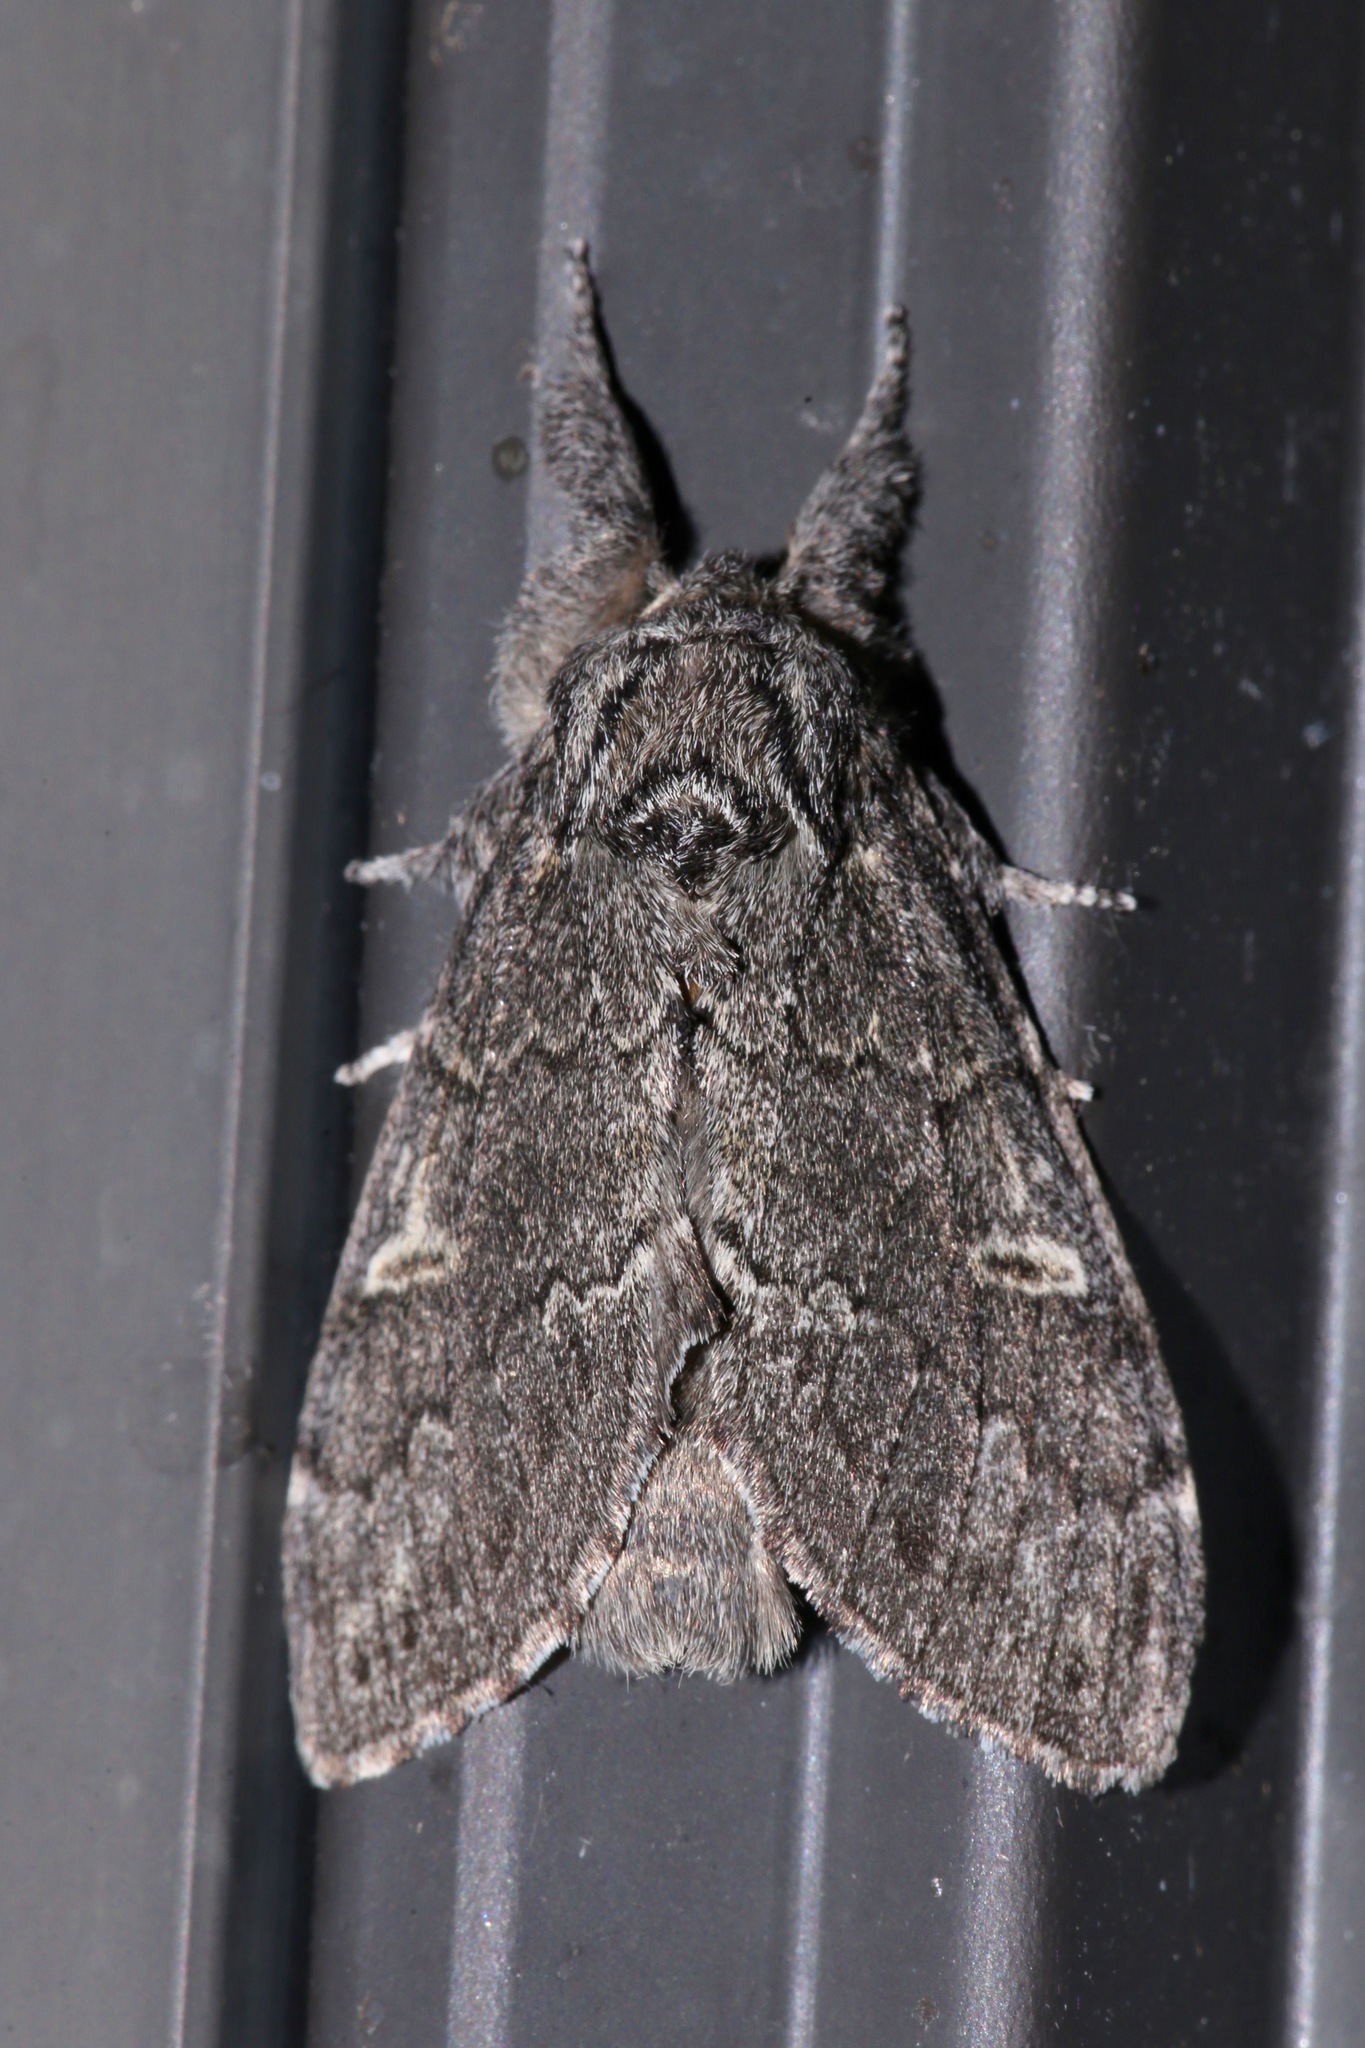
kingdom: Animalia
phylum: Arthropoda
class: Insecta
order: Lepidoptera
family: Notodontidae
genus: Notodonta
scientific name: Notodonta torva
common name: Large dark prominent
